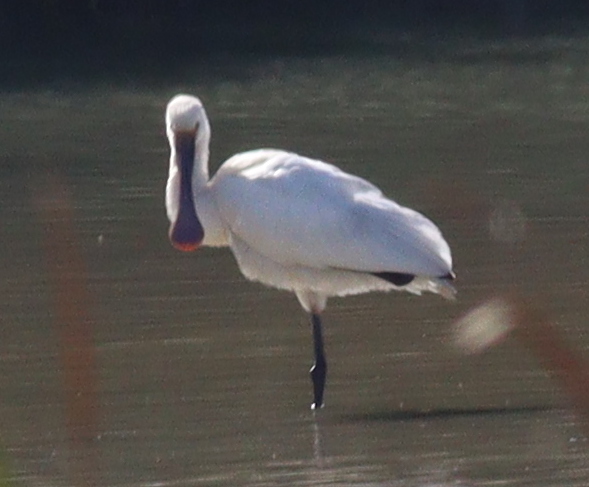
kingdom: Animalia
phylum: Chordata
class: Aves
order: Pelecaniformes
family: Threskiornithidae
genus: Platalea
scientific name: Platalea leucorodia
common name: Eurasian spoonbill
